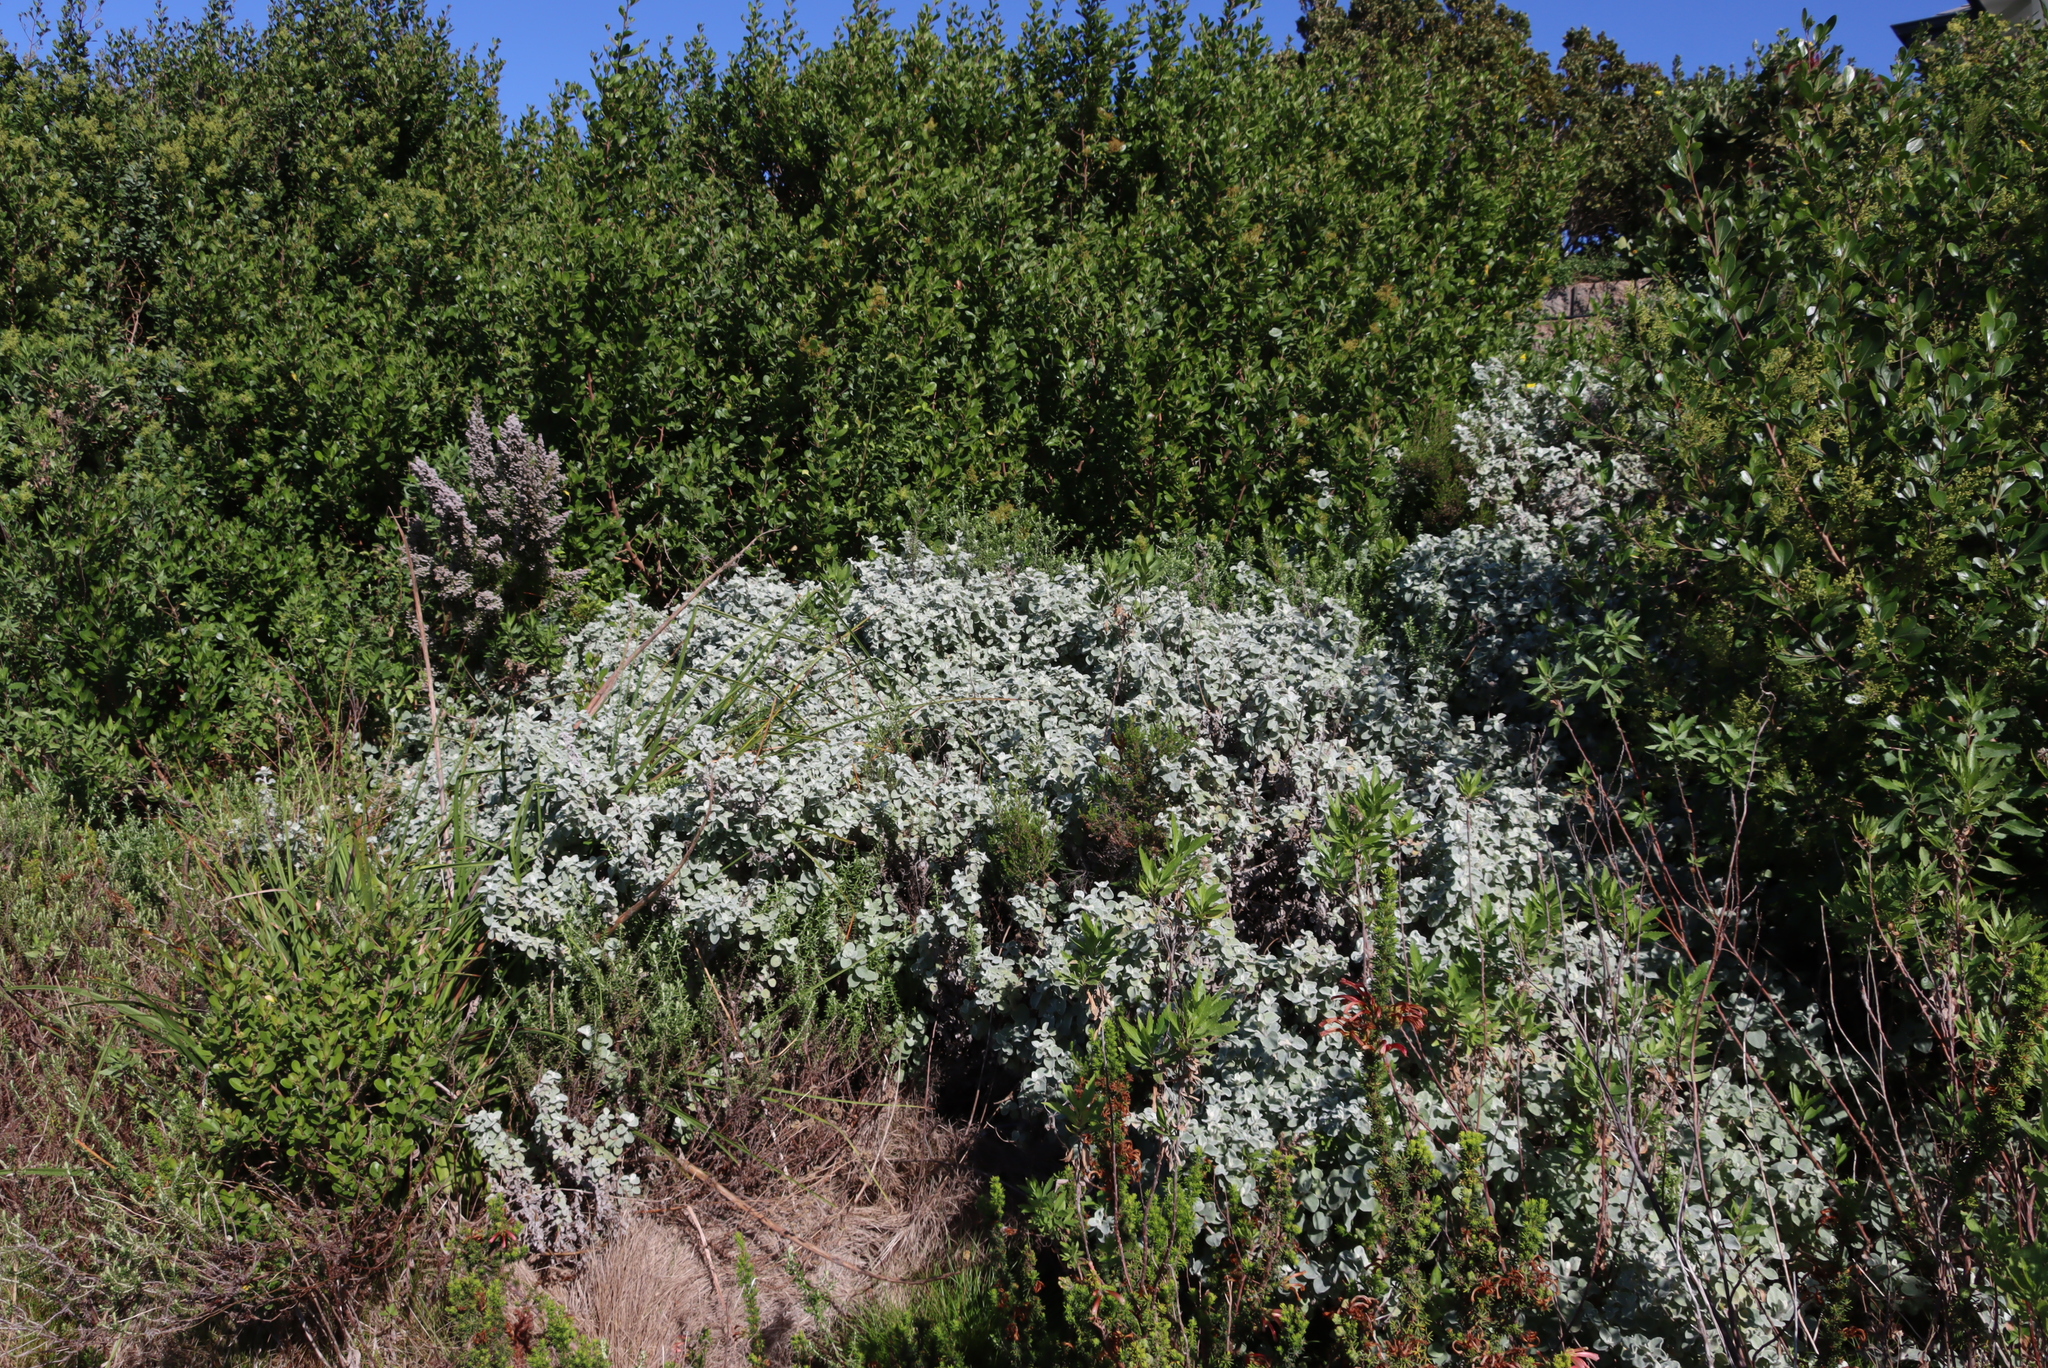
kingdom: Plantae
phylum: Tracheophyta
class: Magnoliopsida
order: Asterales
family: Asteraceae
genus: Helichrysum
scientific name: Helichrysum petiolare
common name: Licorice-plant
